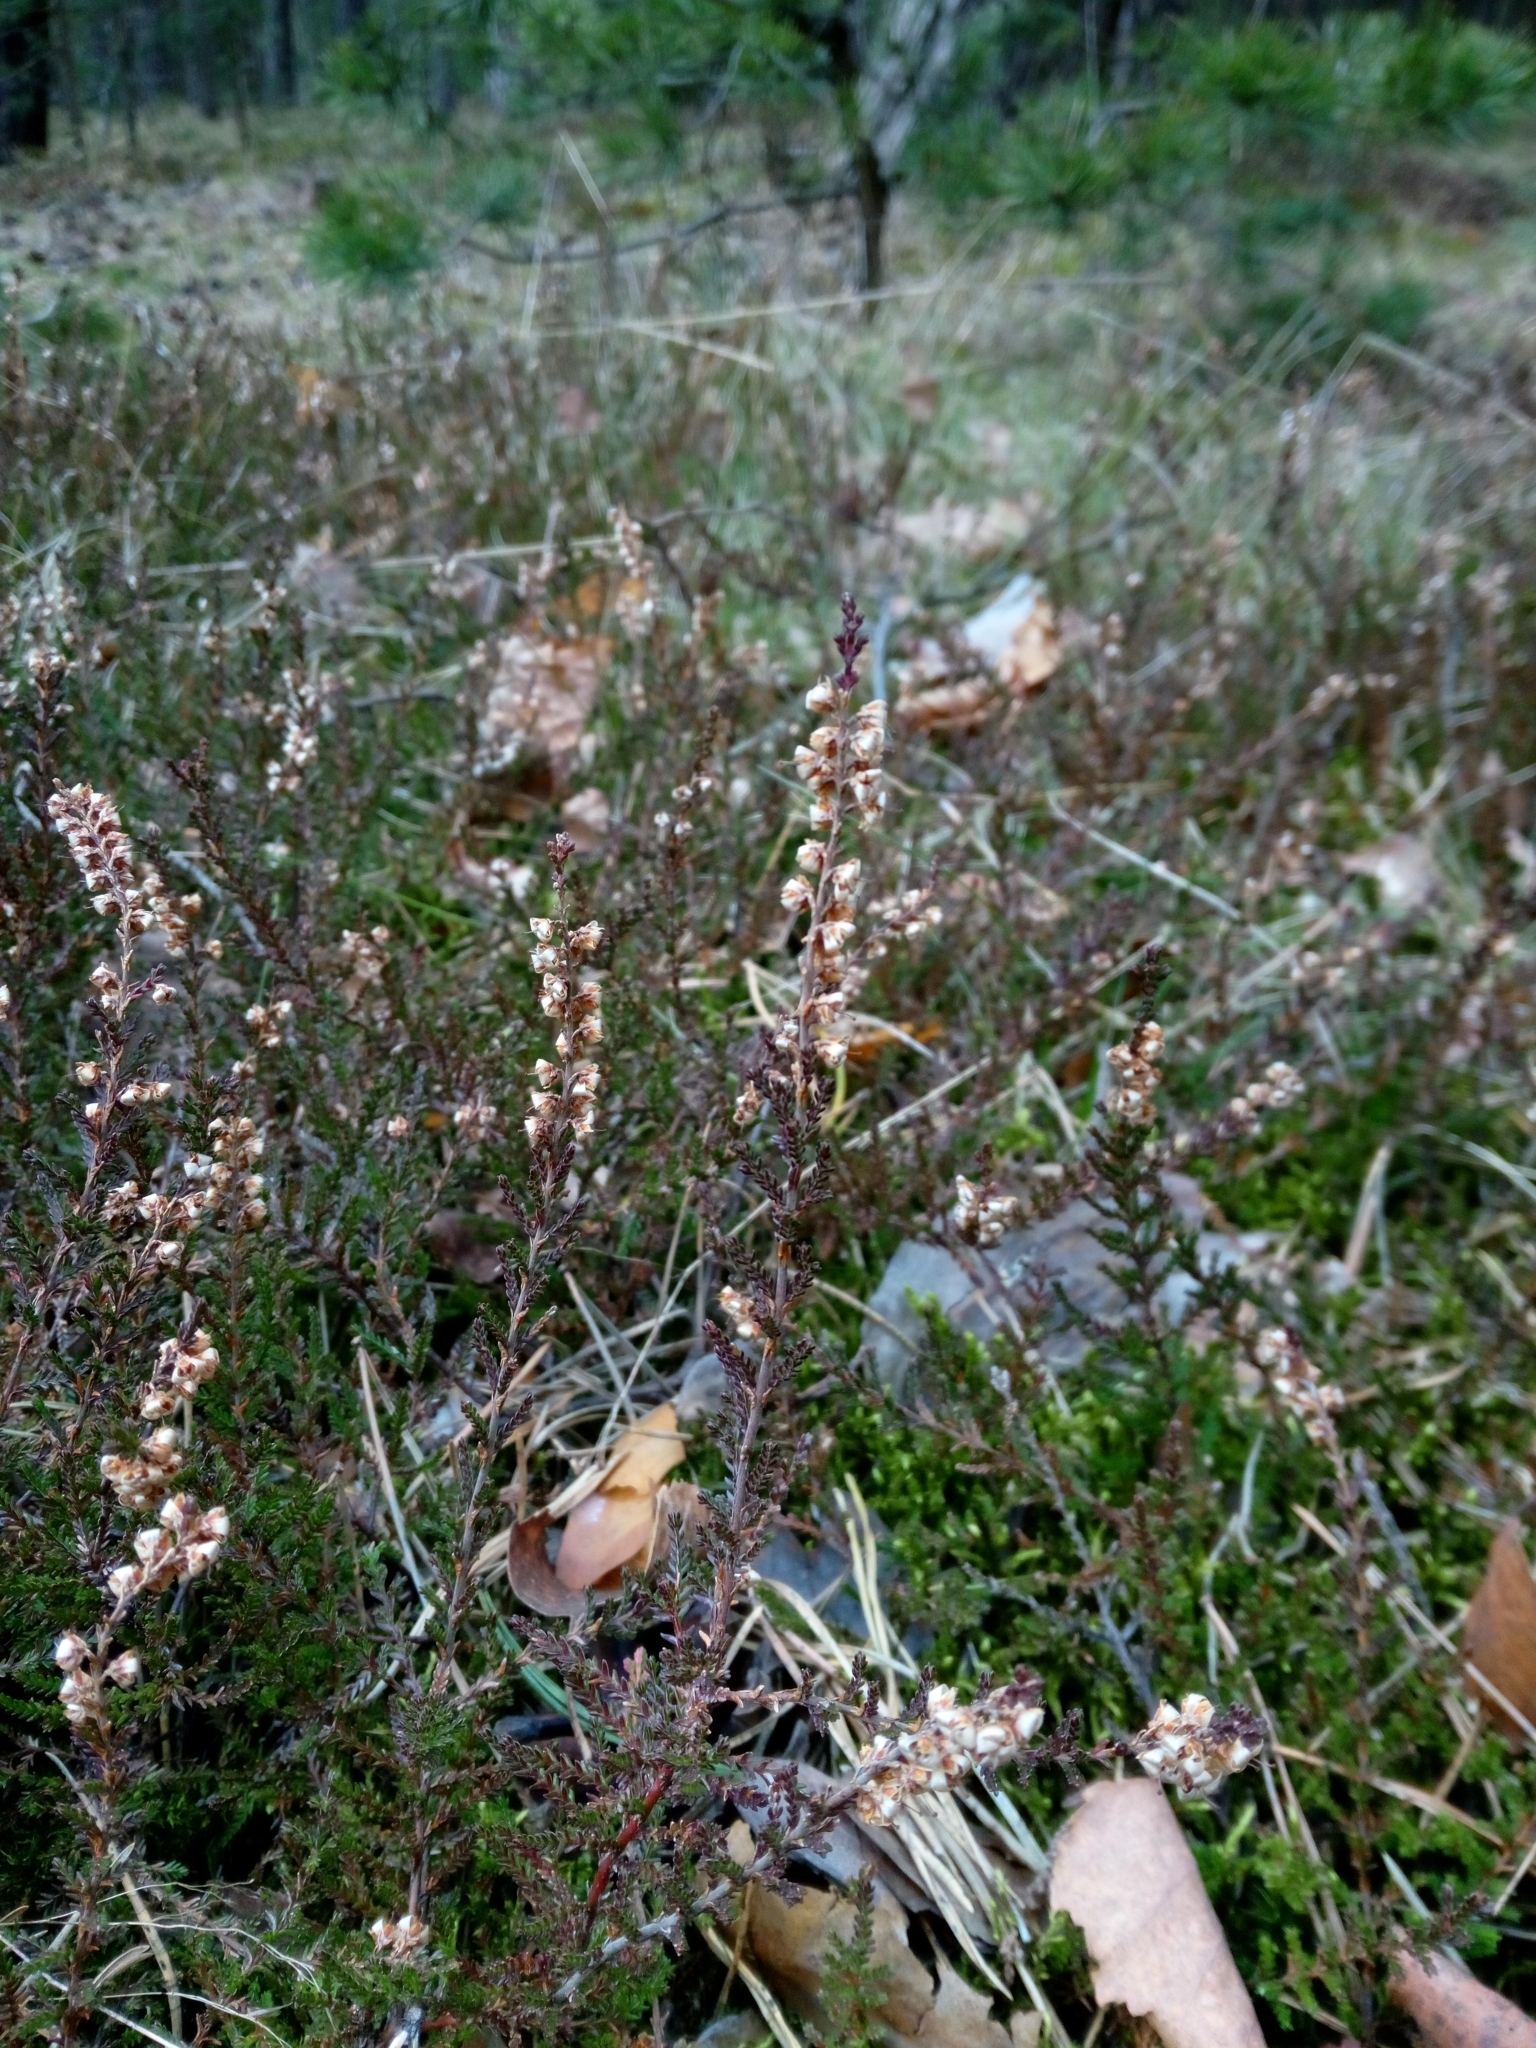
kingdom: Plantae
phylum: Tracheophyta
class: Magnoliopsida
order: Ericales
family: Ericaceae
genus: Calluna
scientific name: Calluna vulgaris
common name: Heather
